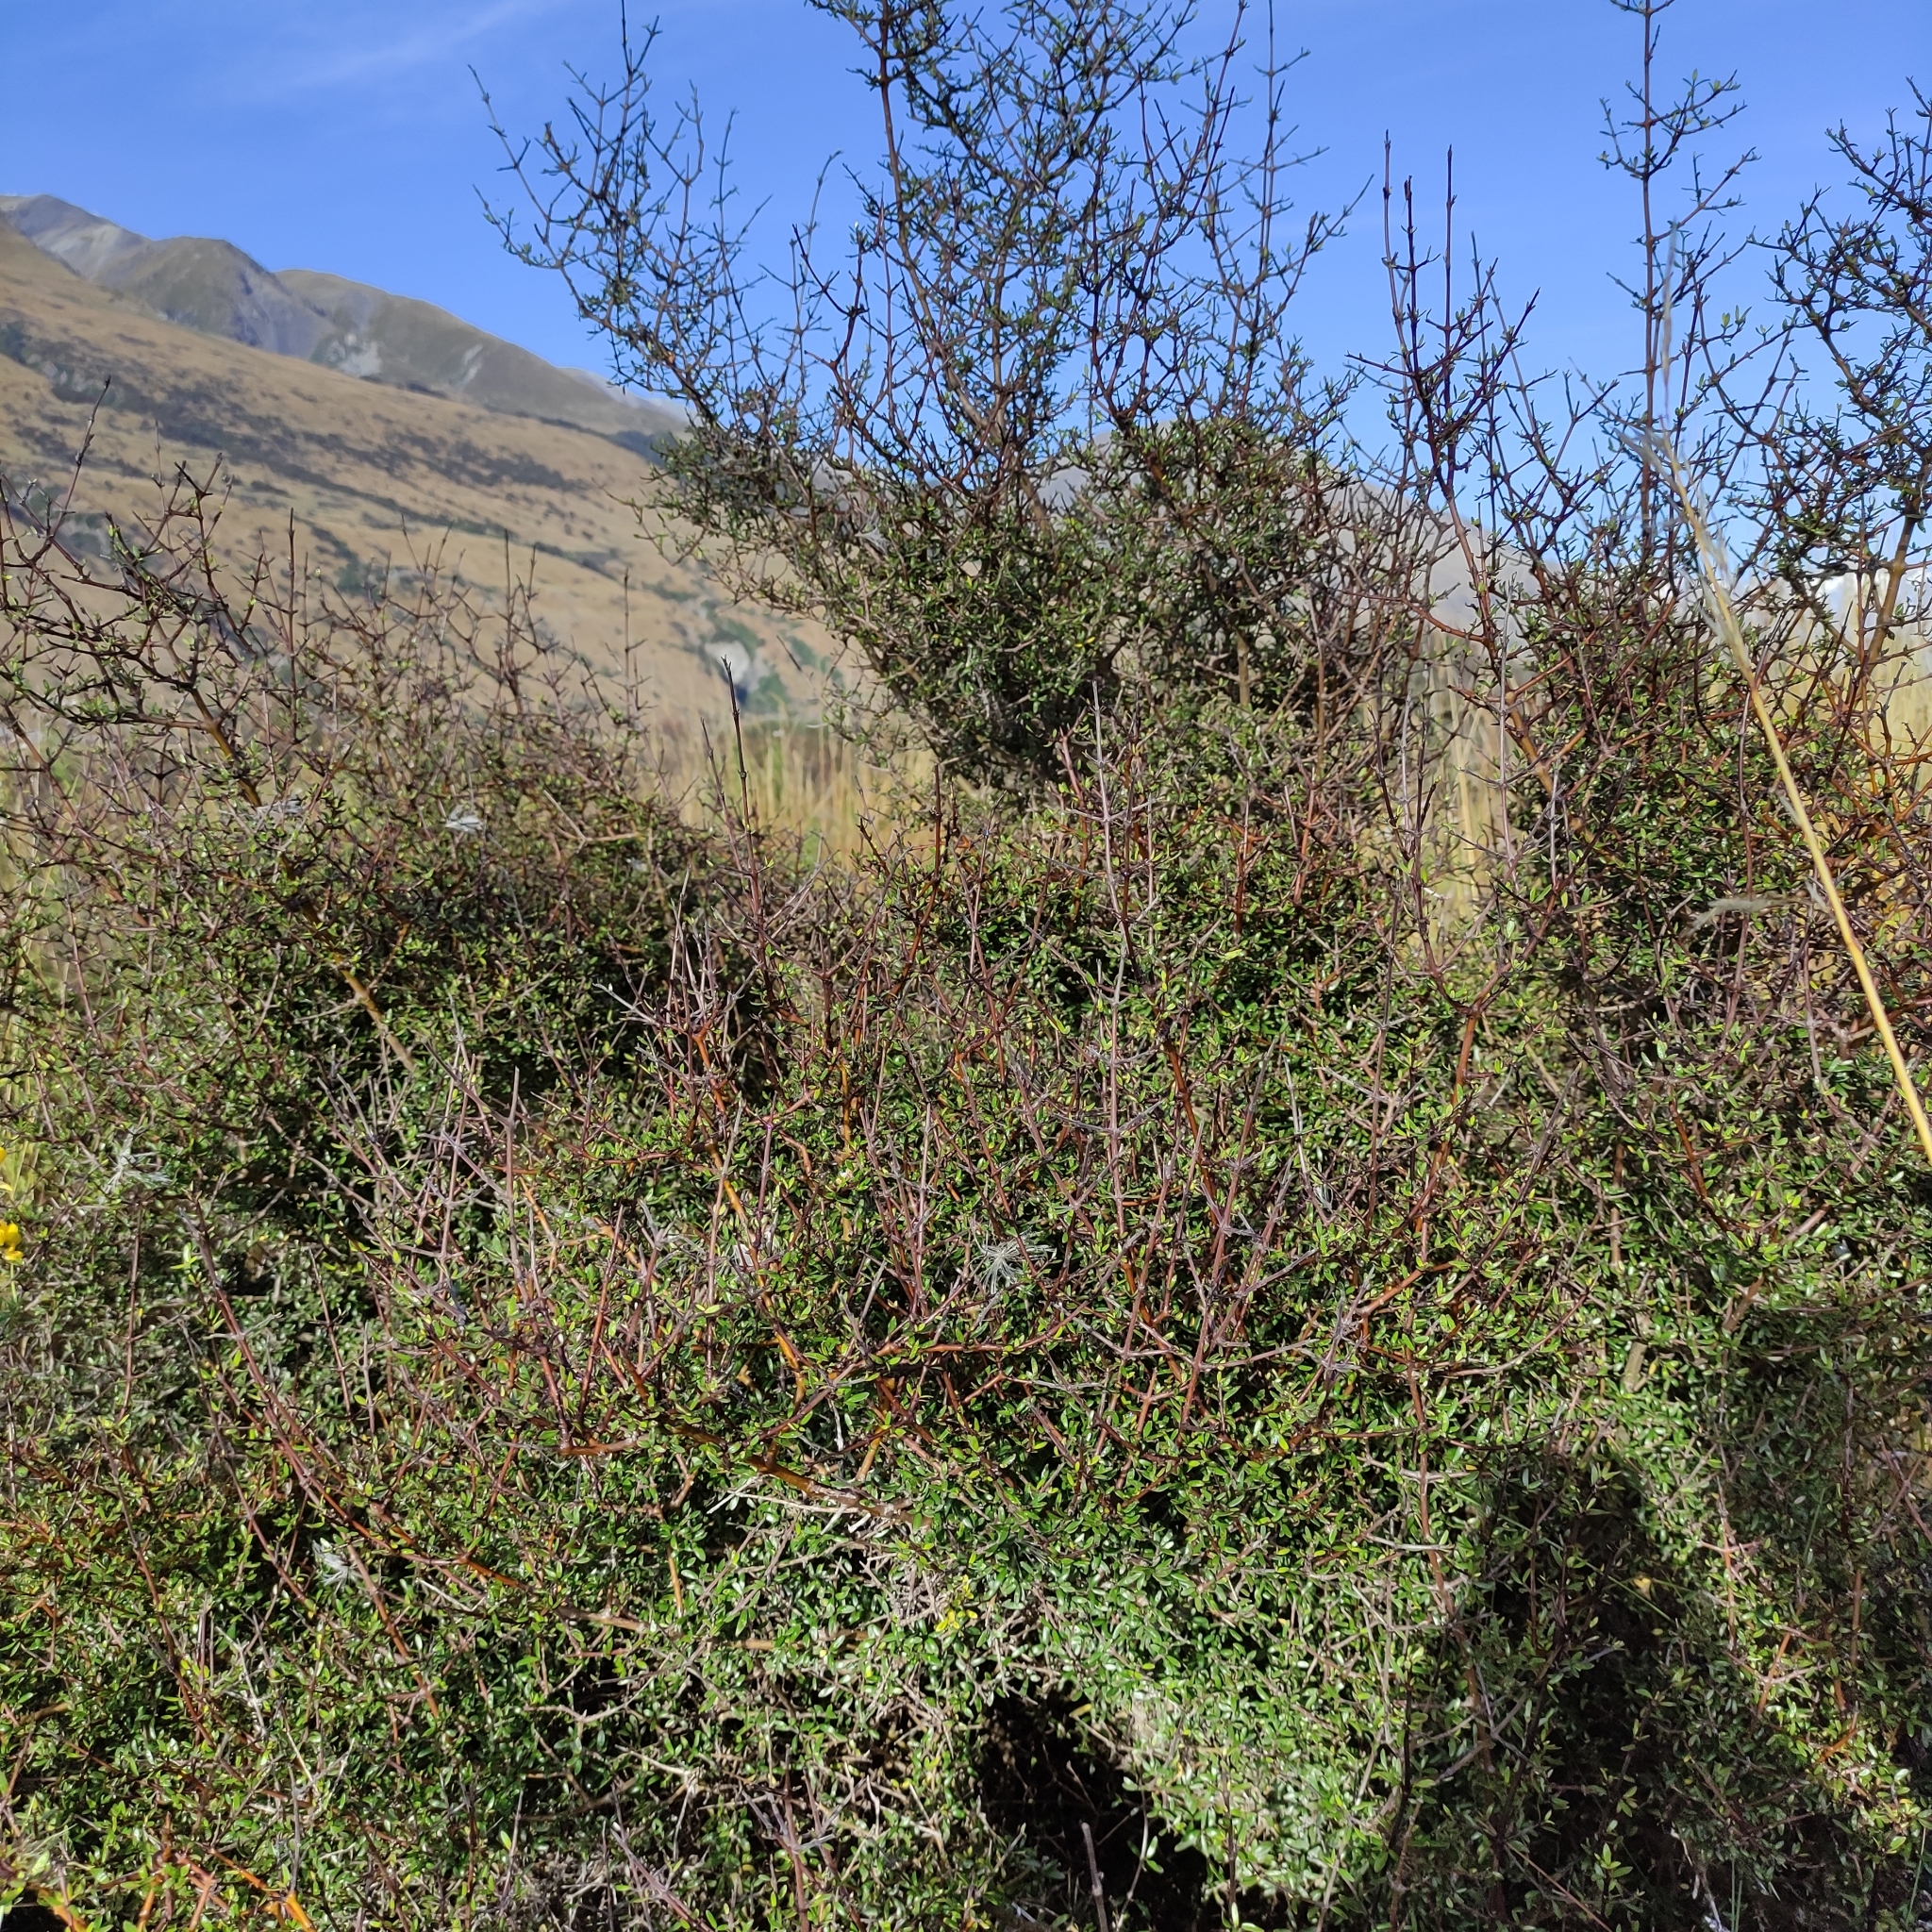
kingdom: Plantae
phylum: Tracheophyta
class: Magnoliopsida
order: Gentianales
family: Rubiaceae
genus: Coprosma
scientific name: Coprosma propinqua
